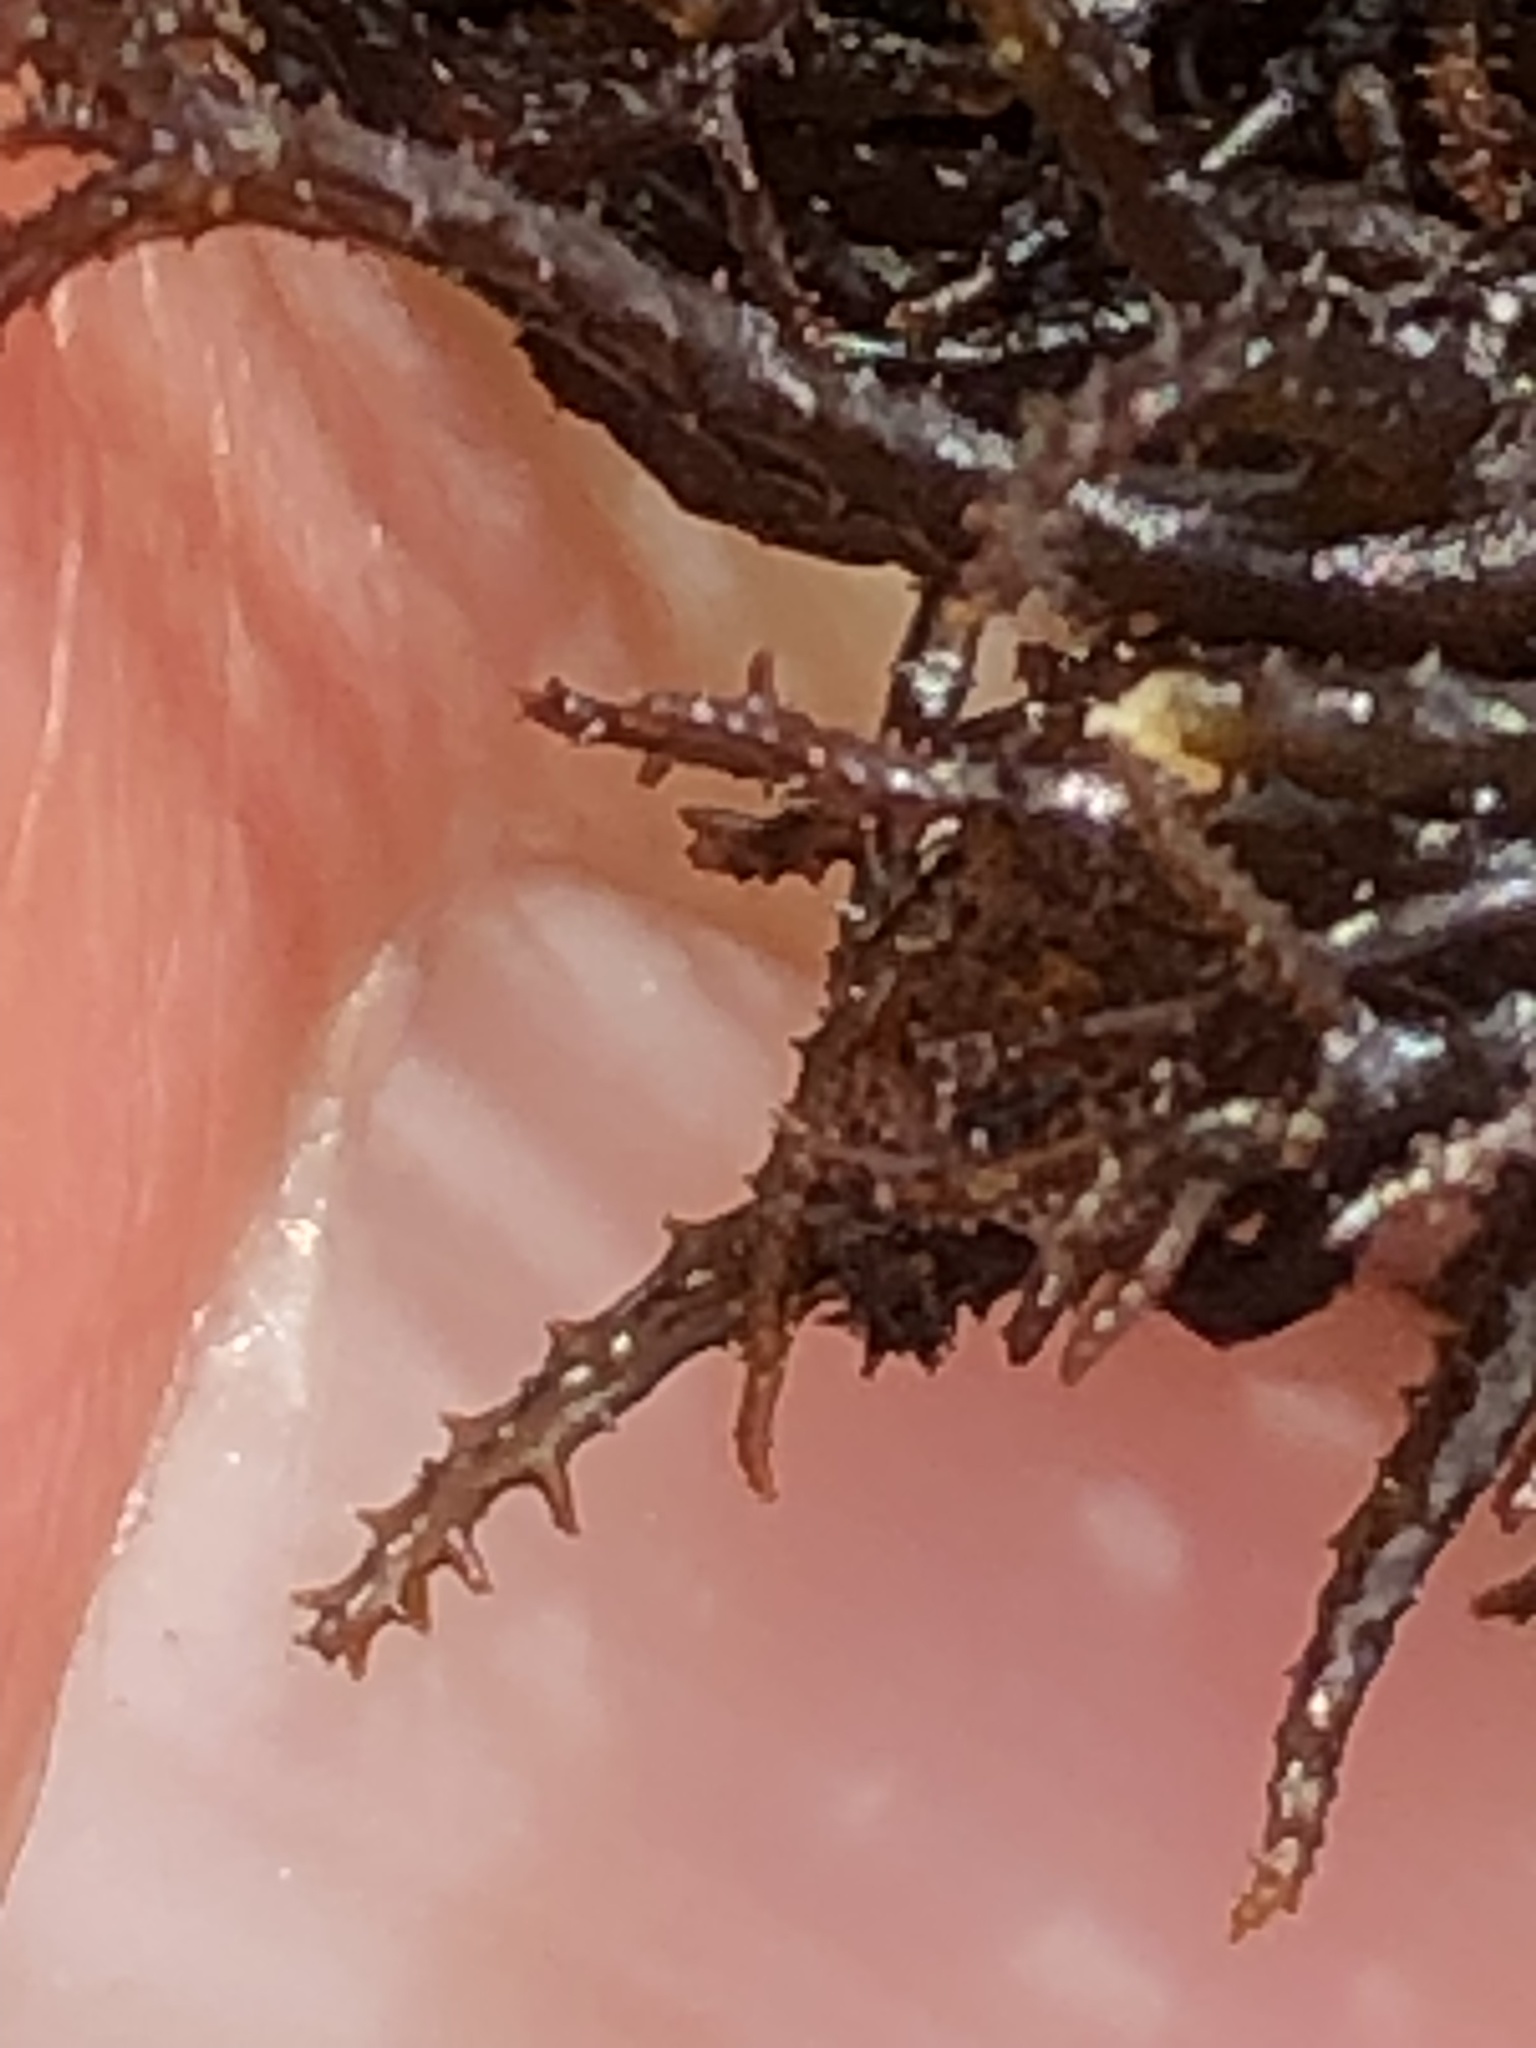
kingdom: Plantae
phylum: Rhodophyta
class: Florideophyceae
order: Gigartinales
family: Endocladiaceae
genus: Endocladia
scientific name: Endocladia muricata
